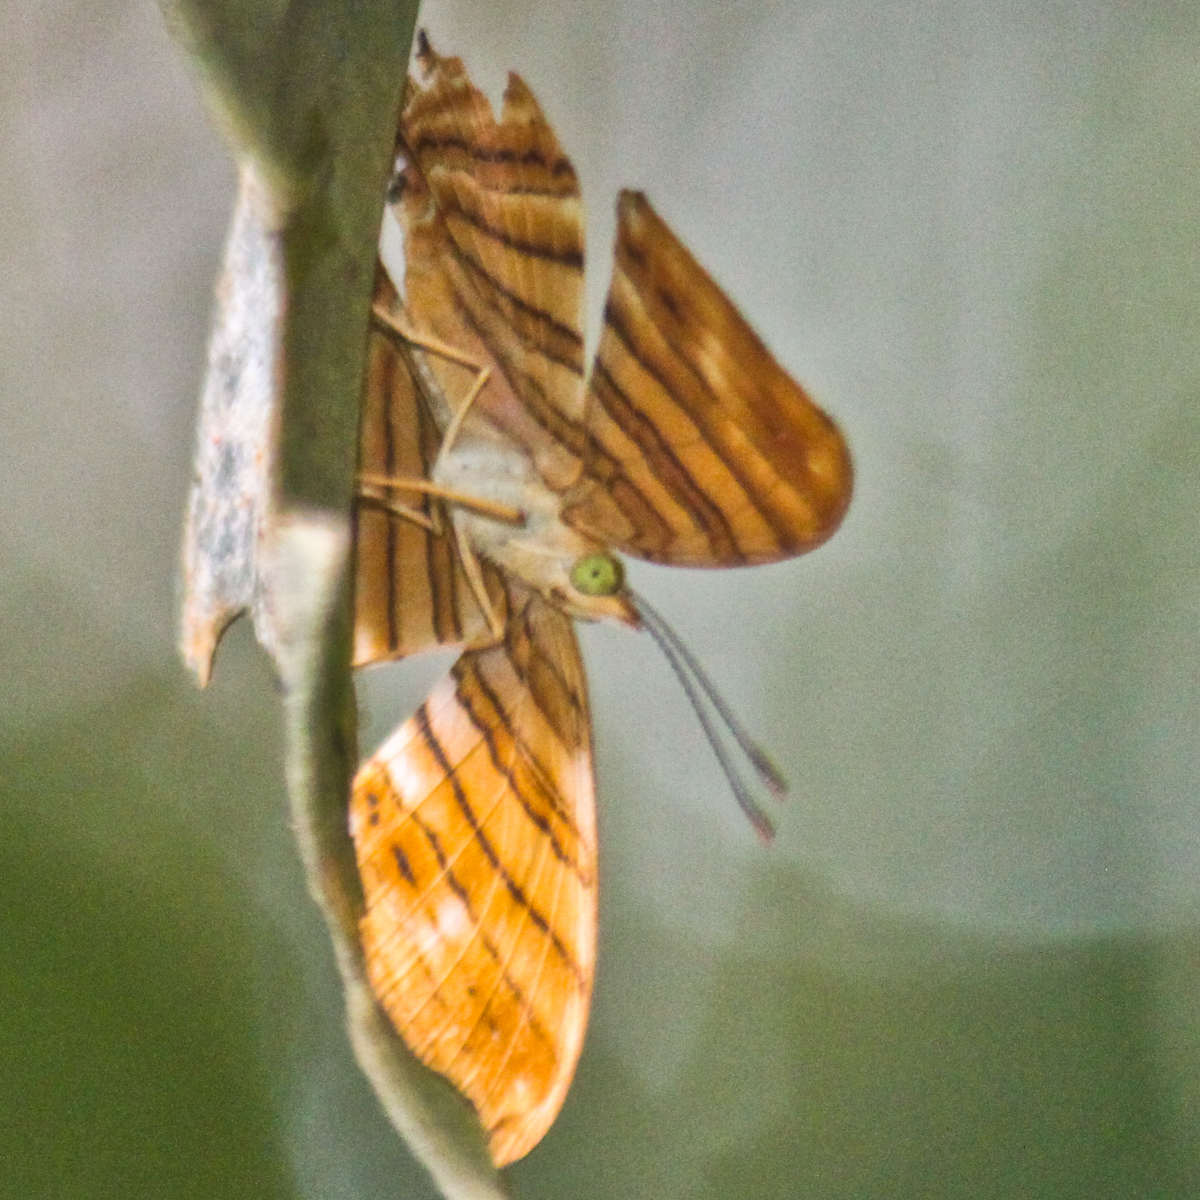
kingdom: Animalia
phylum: Arthropoda
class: Insecta
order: Lepidoptera
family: Nymphalidae
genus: Chersonesia
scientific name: Chersonesia risa
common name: Common maplet
